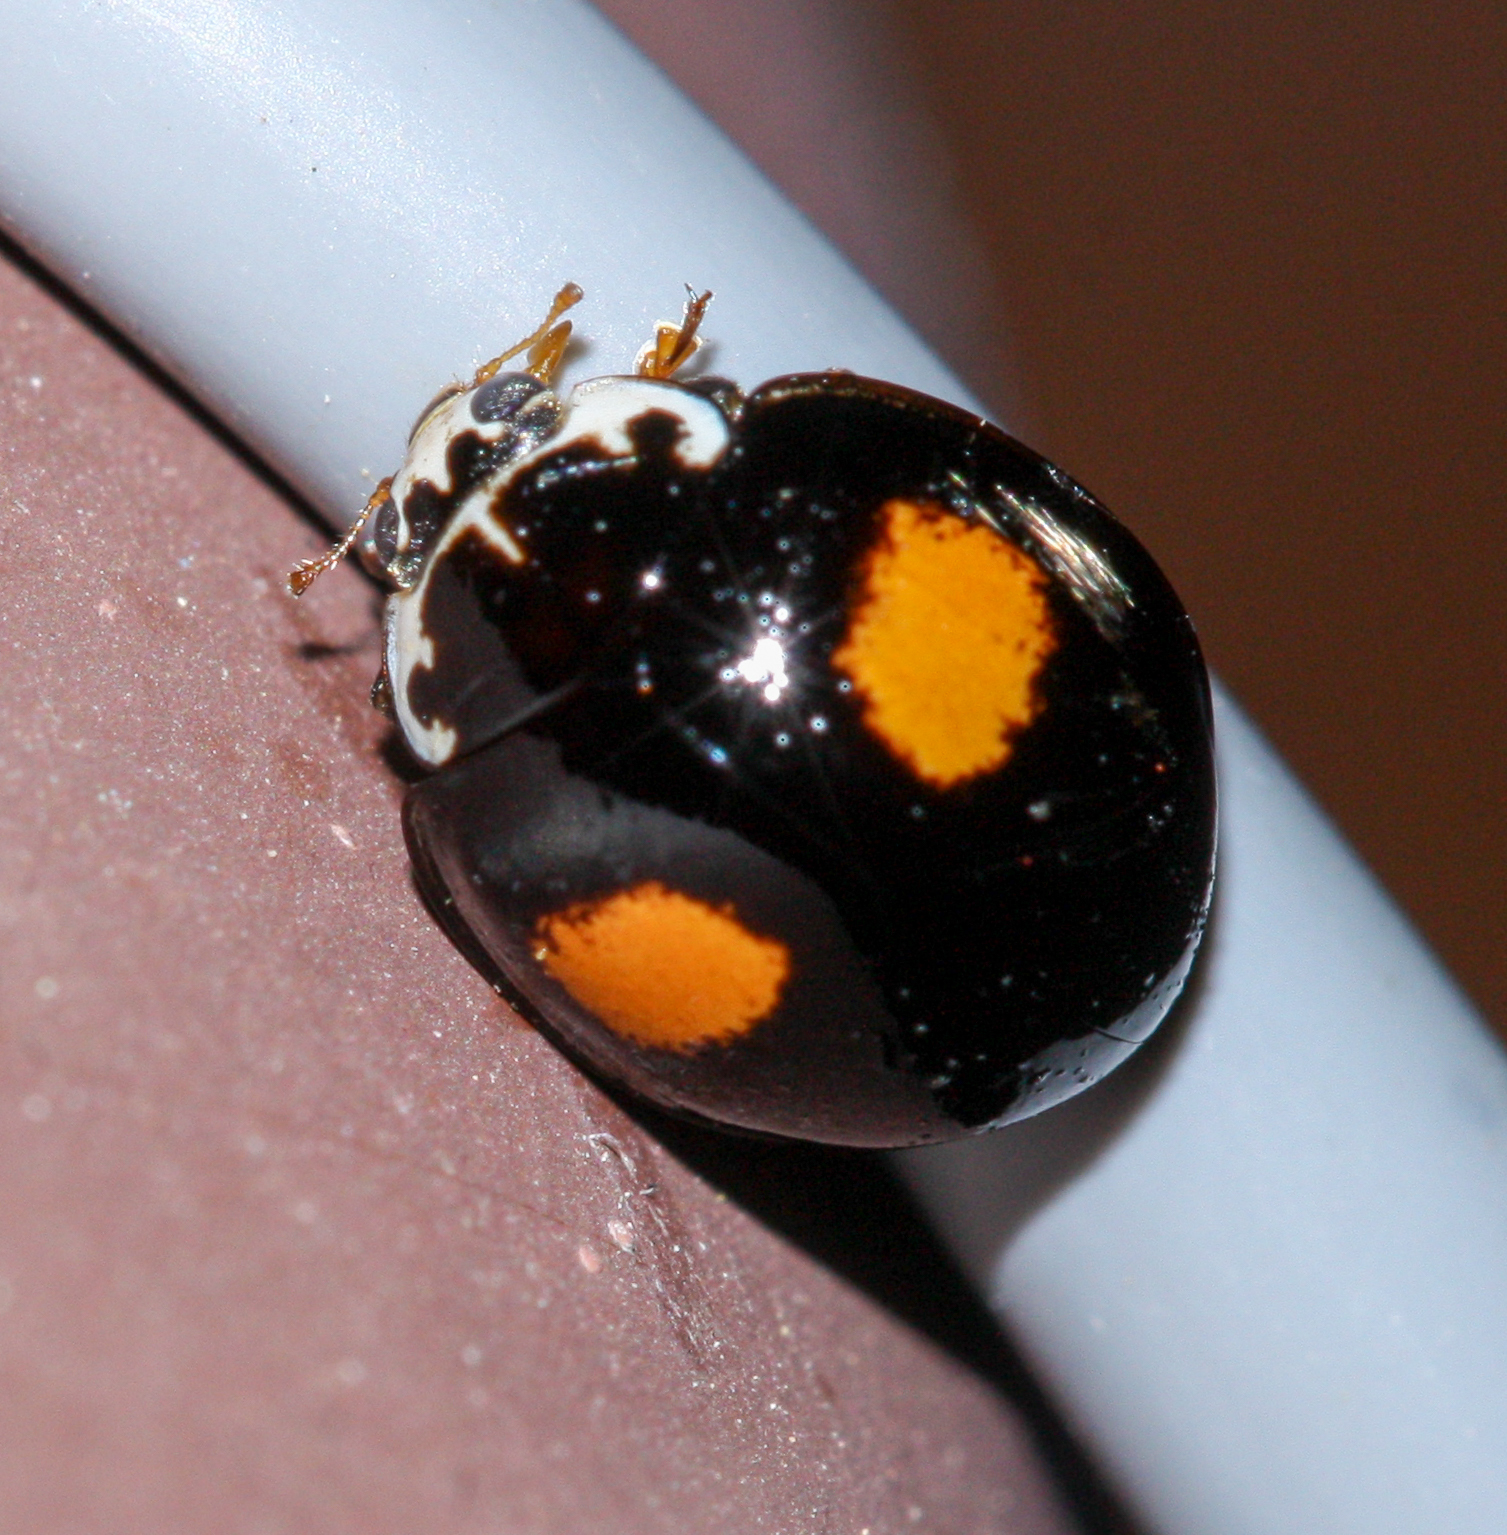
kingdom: Animalia
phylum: Arthropoda
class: Insecta
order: Coleoptera
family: Coccinellidae
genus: Harmonia
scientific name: Harmonia axyridis
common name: Harlequin ladybird
